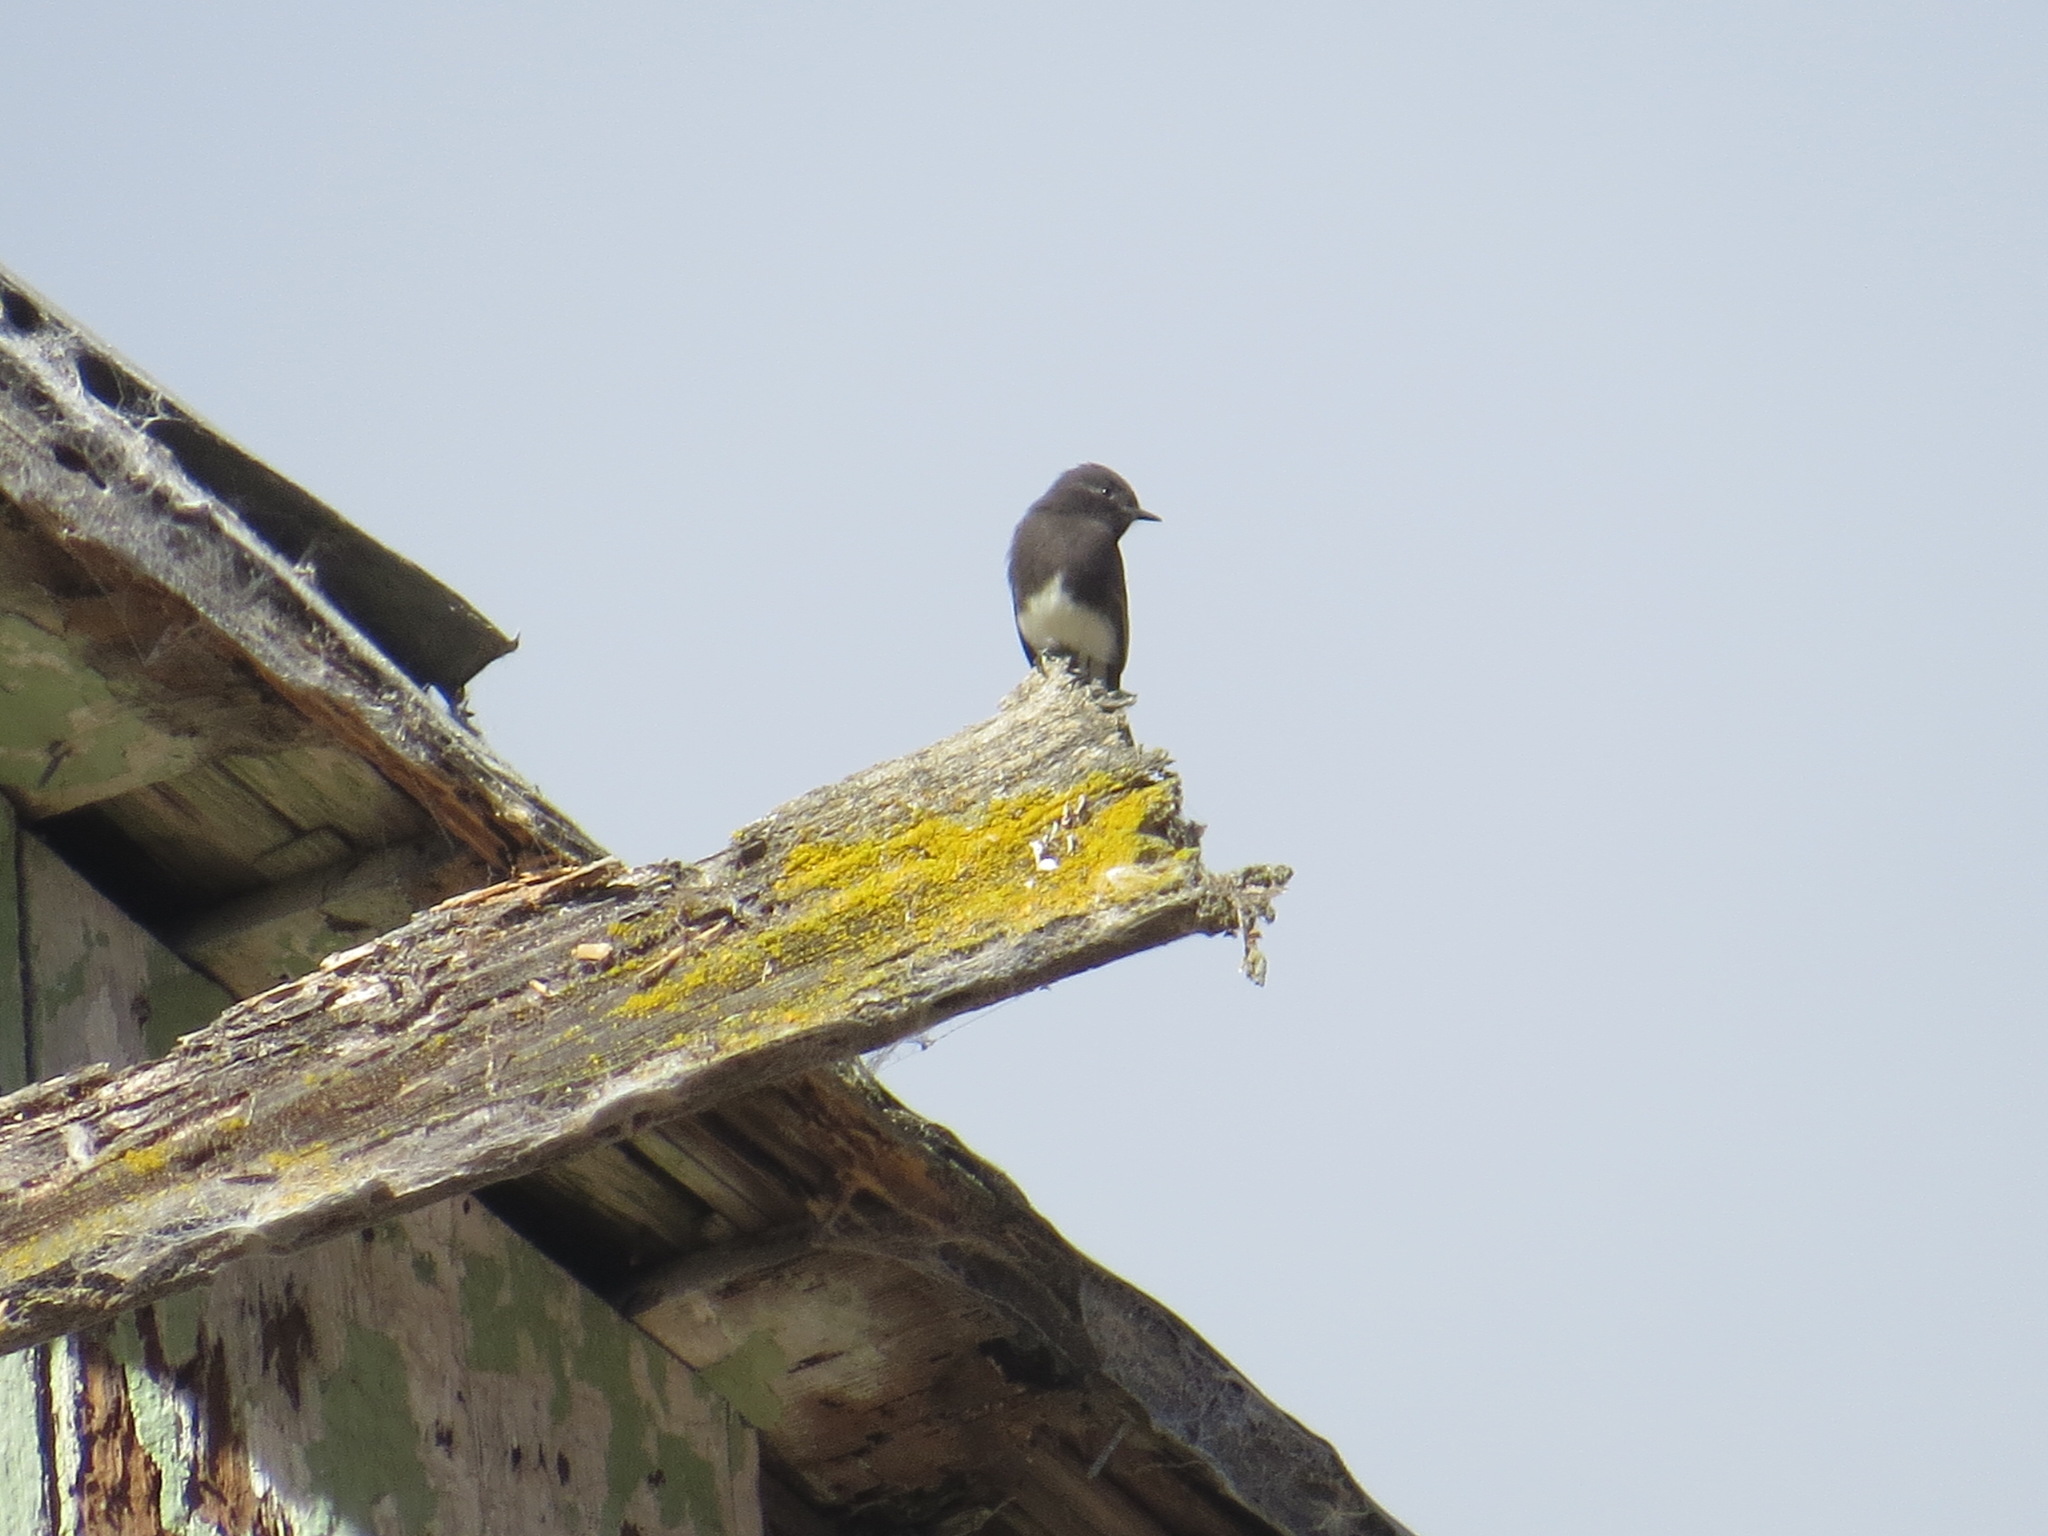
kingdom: Animalia
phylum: Chordata
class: Aves
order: Passeriformes
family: Tyrannidae
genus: Sayornis
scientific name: Sayornis nigricans
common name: Black phoebe
